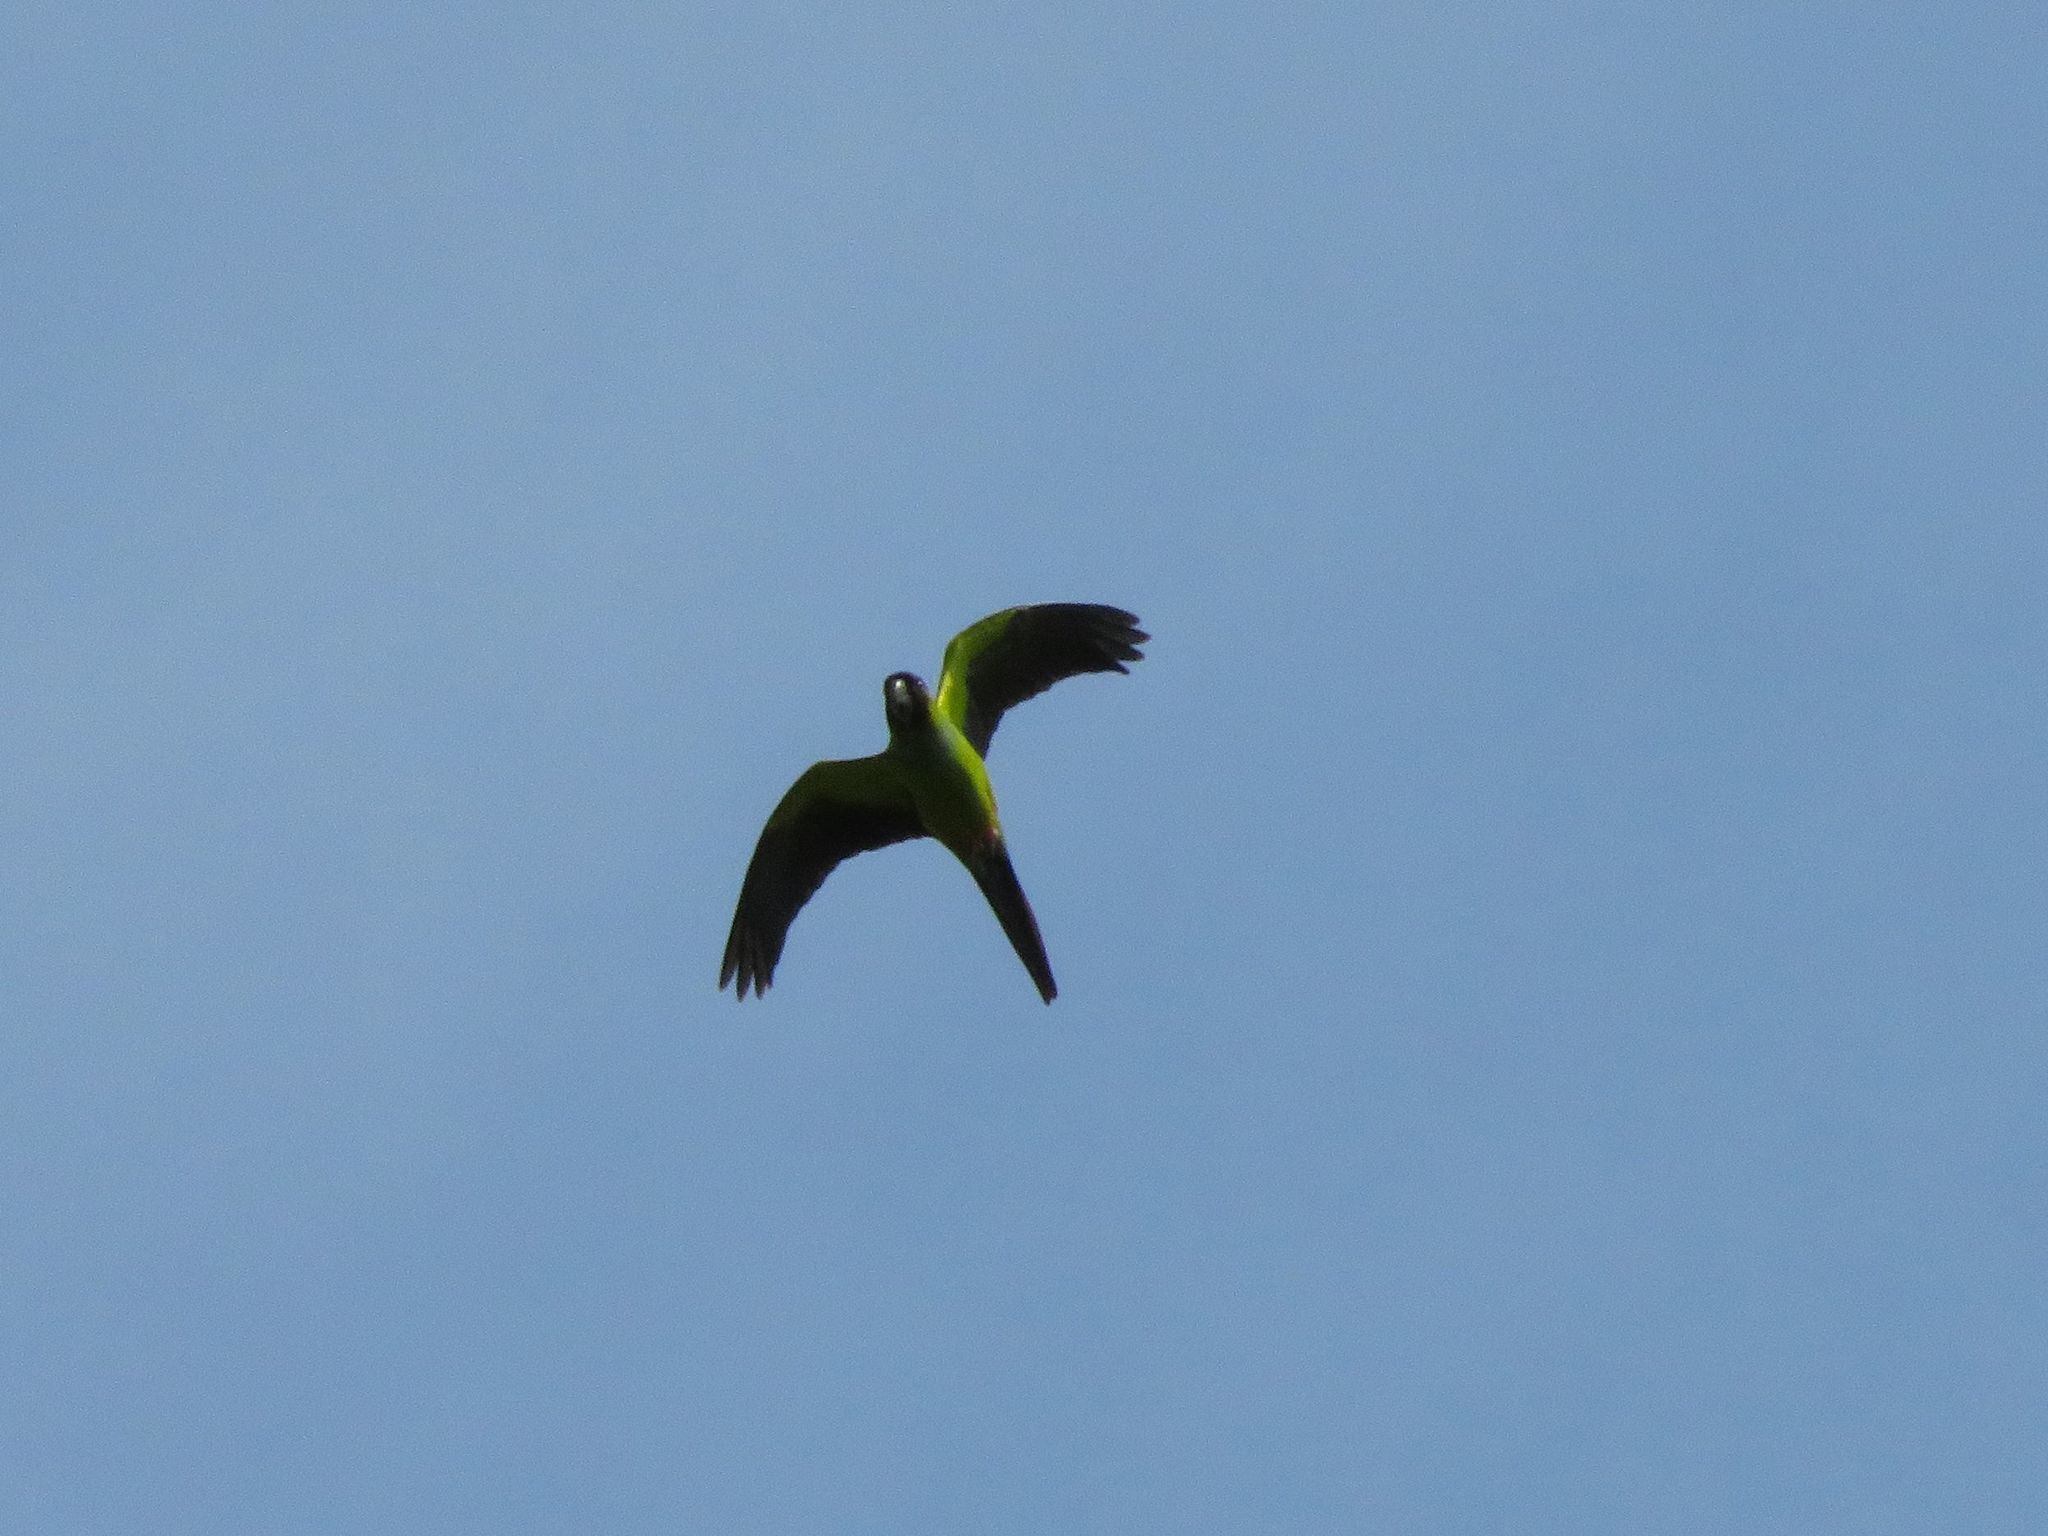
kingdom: Animalia
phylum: Chordata
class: Aves
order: Psittaciformes
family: Psittacidae
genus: Nandayus
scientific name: Nandayus nenday
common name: Nanday parakeet
